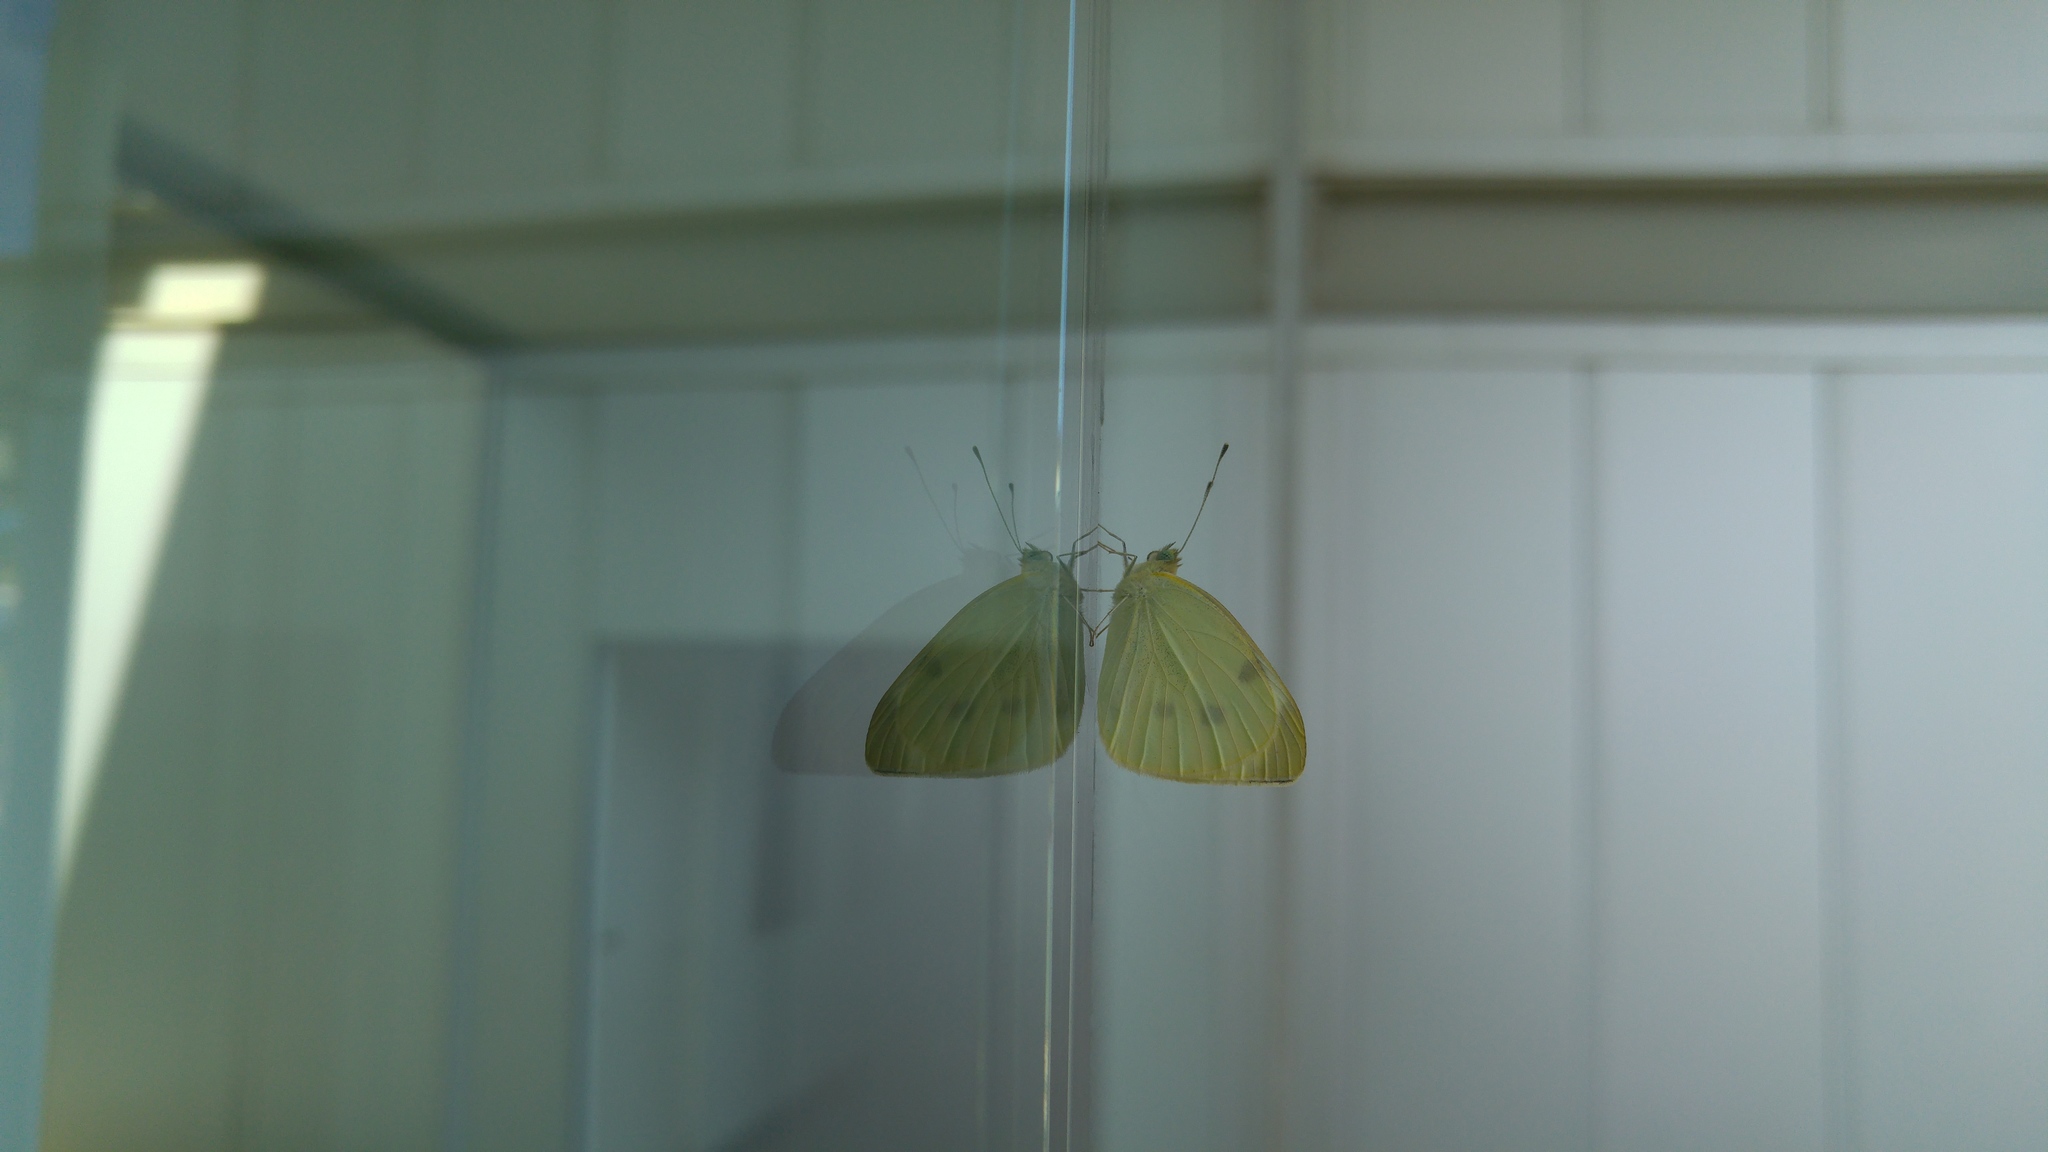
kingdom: Animalia
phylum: Arthropoda
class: Insecta
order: Lepidoptera
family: Pieridae
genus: Pieris
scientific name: Pieris rapae
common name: Small white
